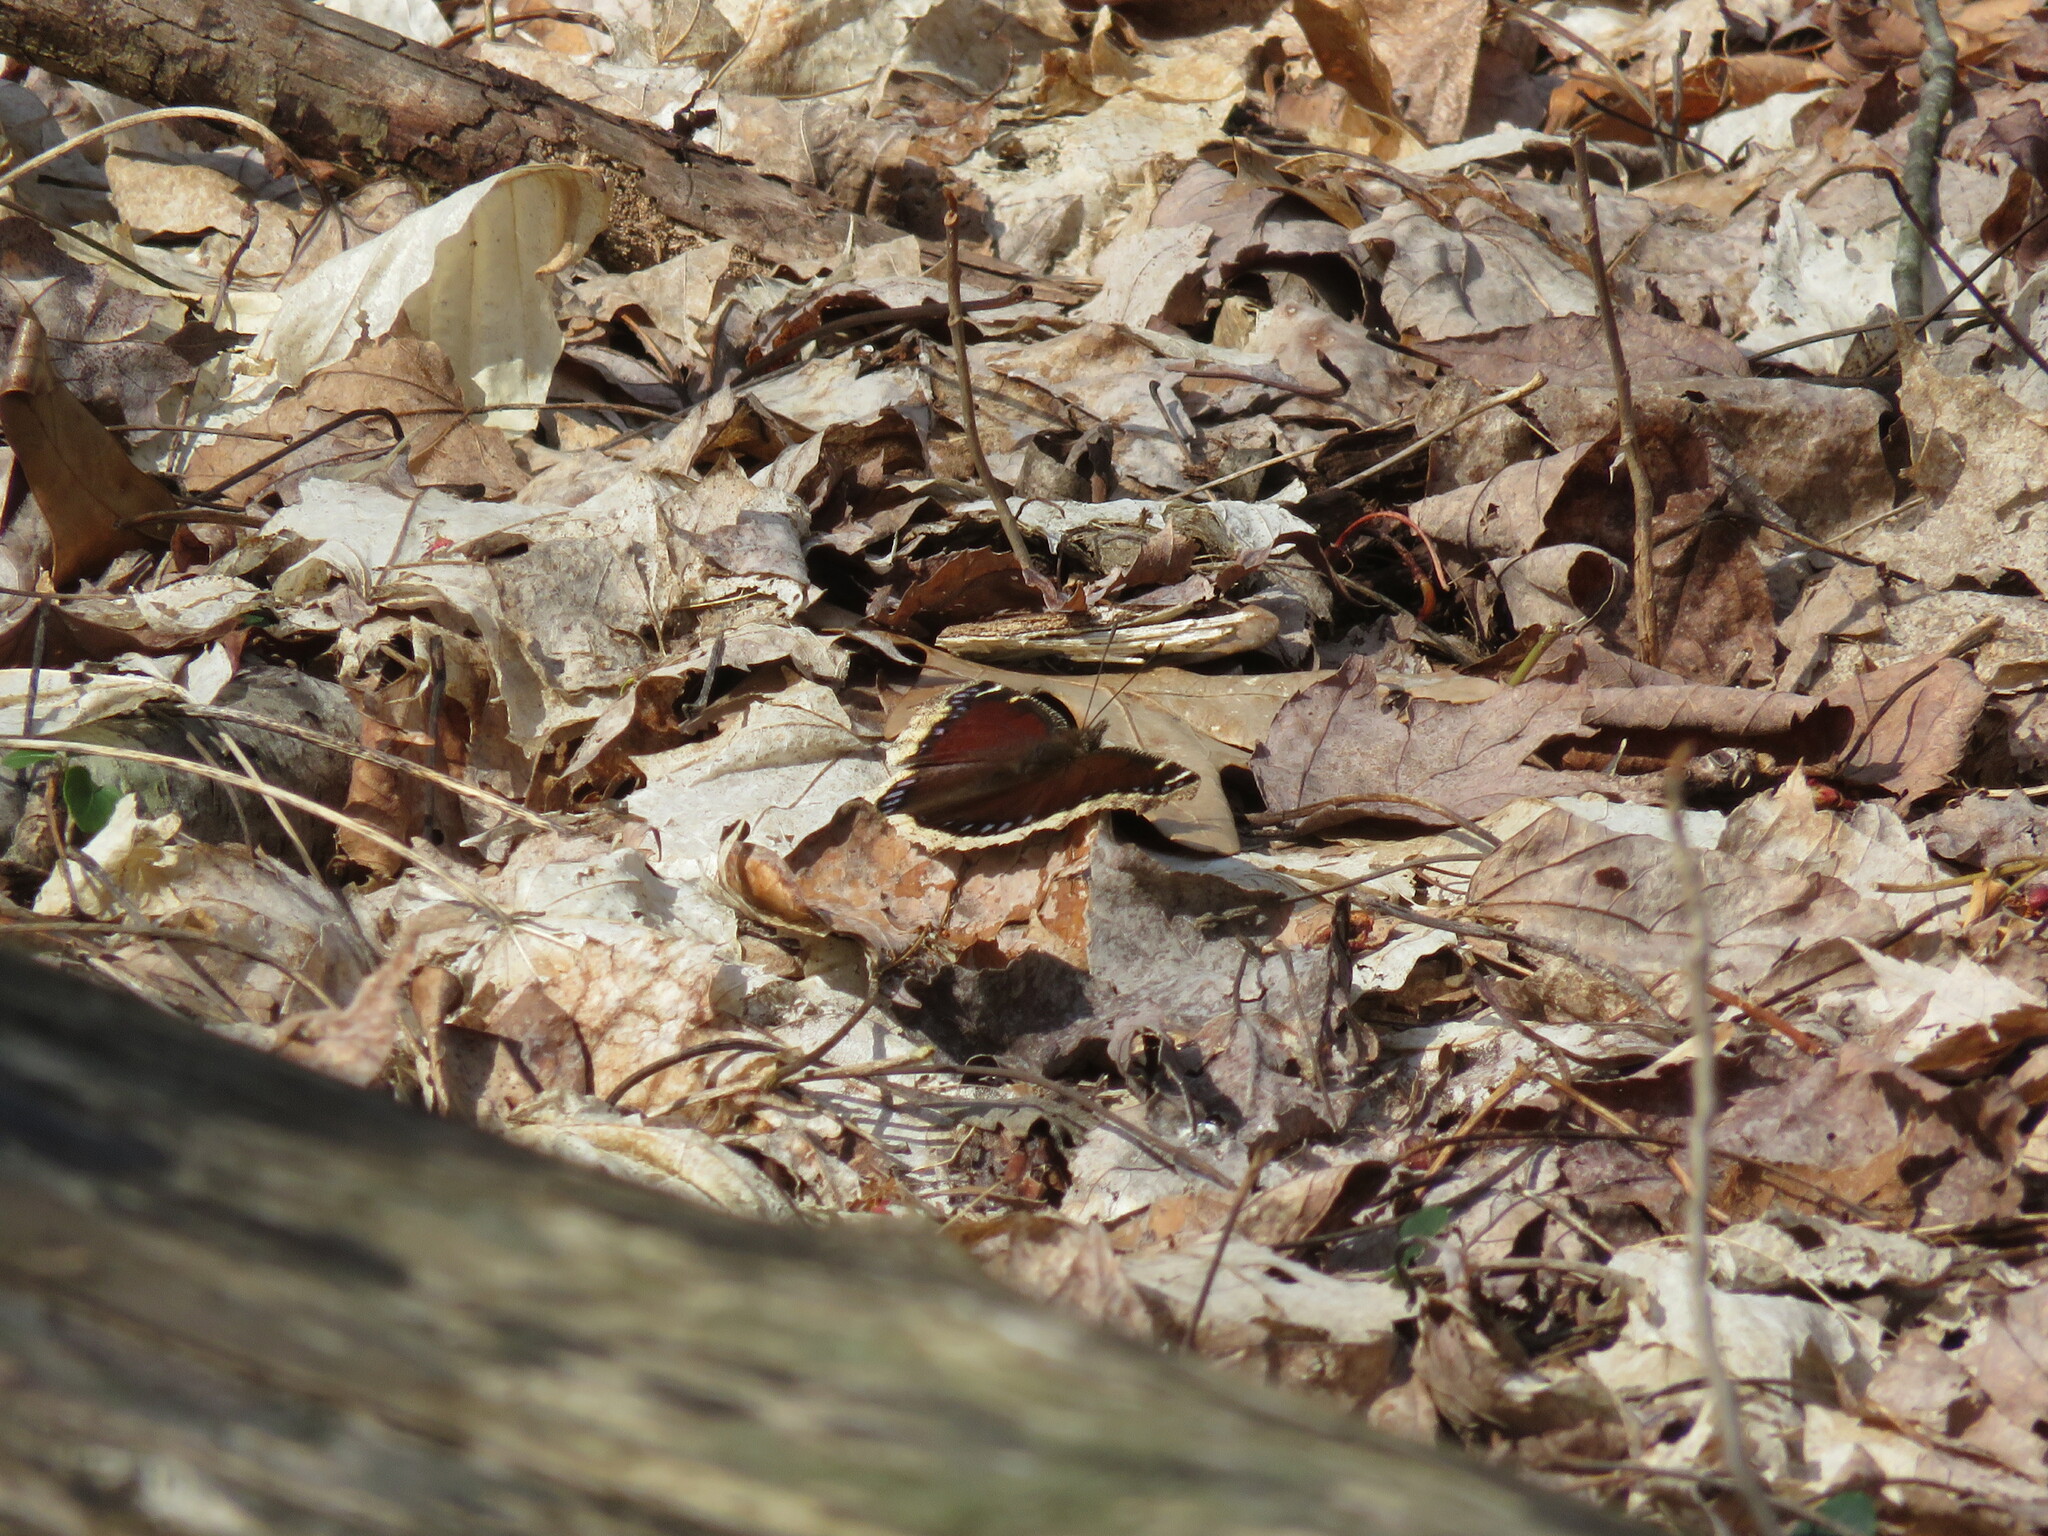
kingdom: Animalia
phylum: Arthropoda
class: Insecta
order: Lepidoptera
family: Nymphalidae
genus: Nymphalis
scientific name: Nymphalis antiopa
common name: Camberwell beauty
